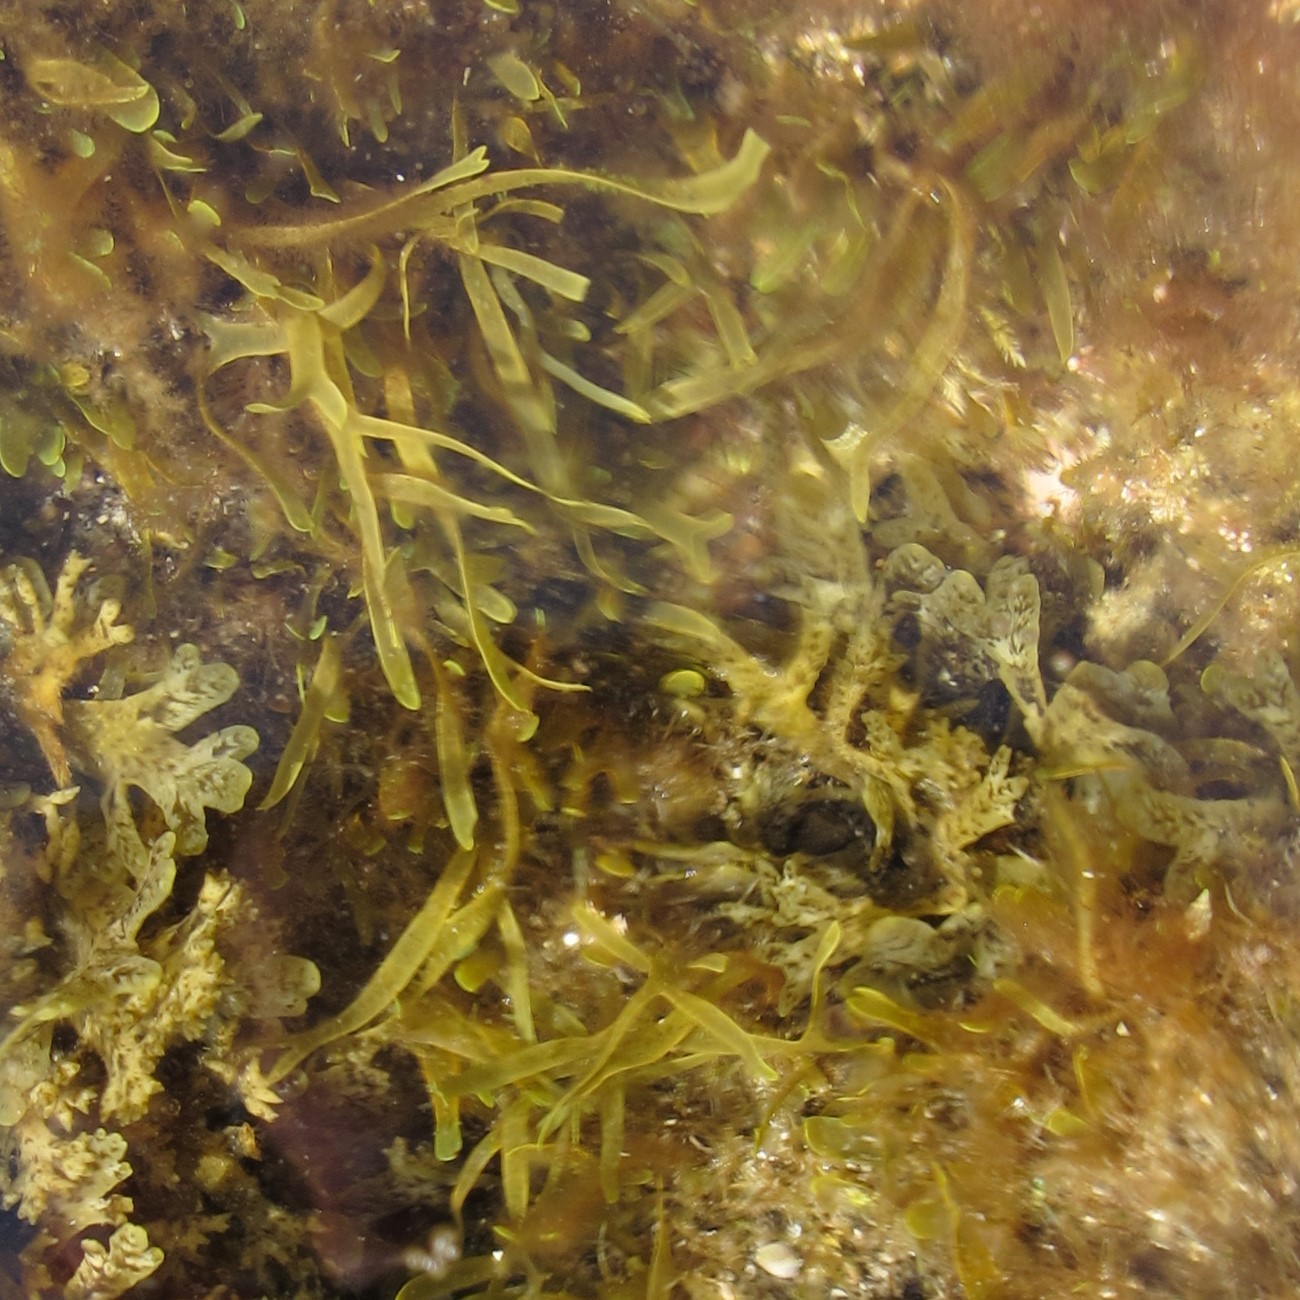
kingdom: Chromista
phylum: Ochrophyta
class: Phaeophyceae
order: Dictyotales
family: Dictyotaceae
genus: Dictyota
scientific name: Dictyota spiralis
